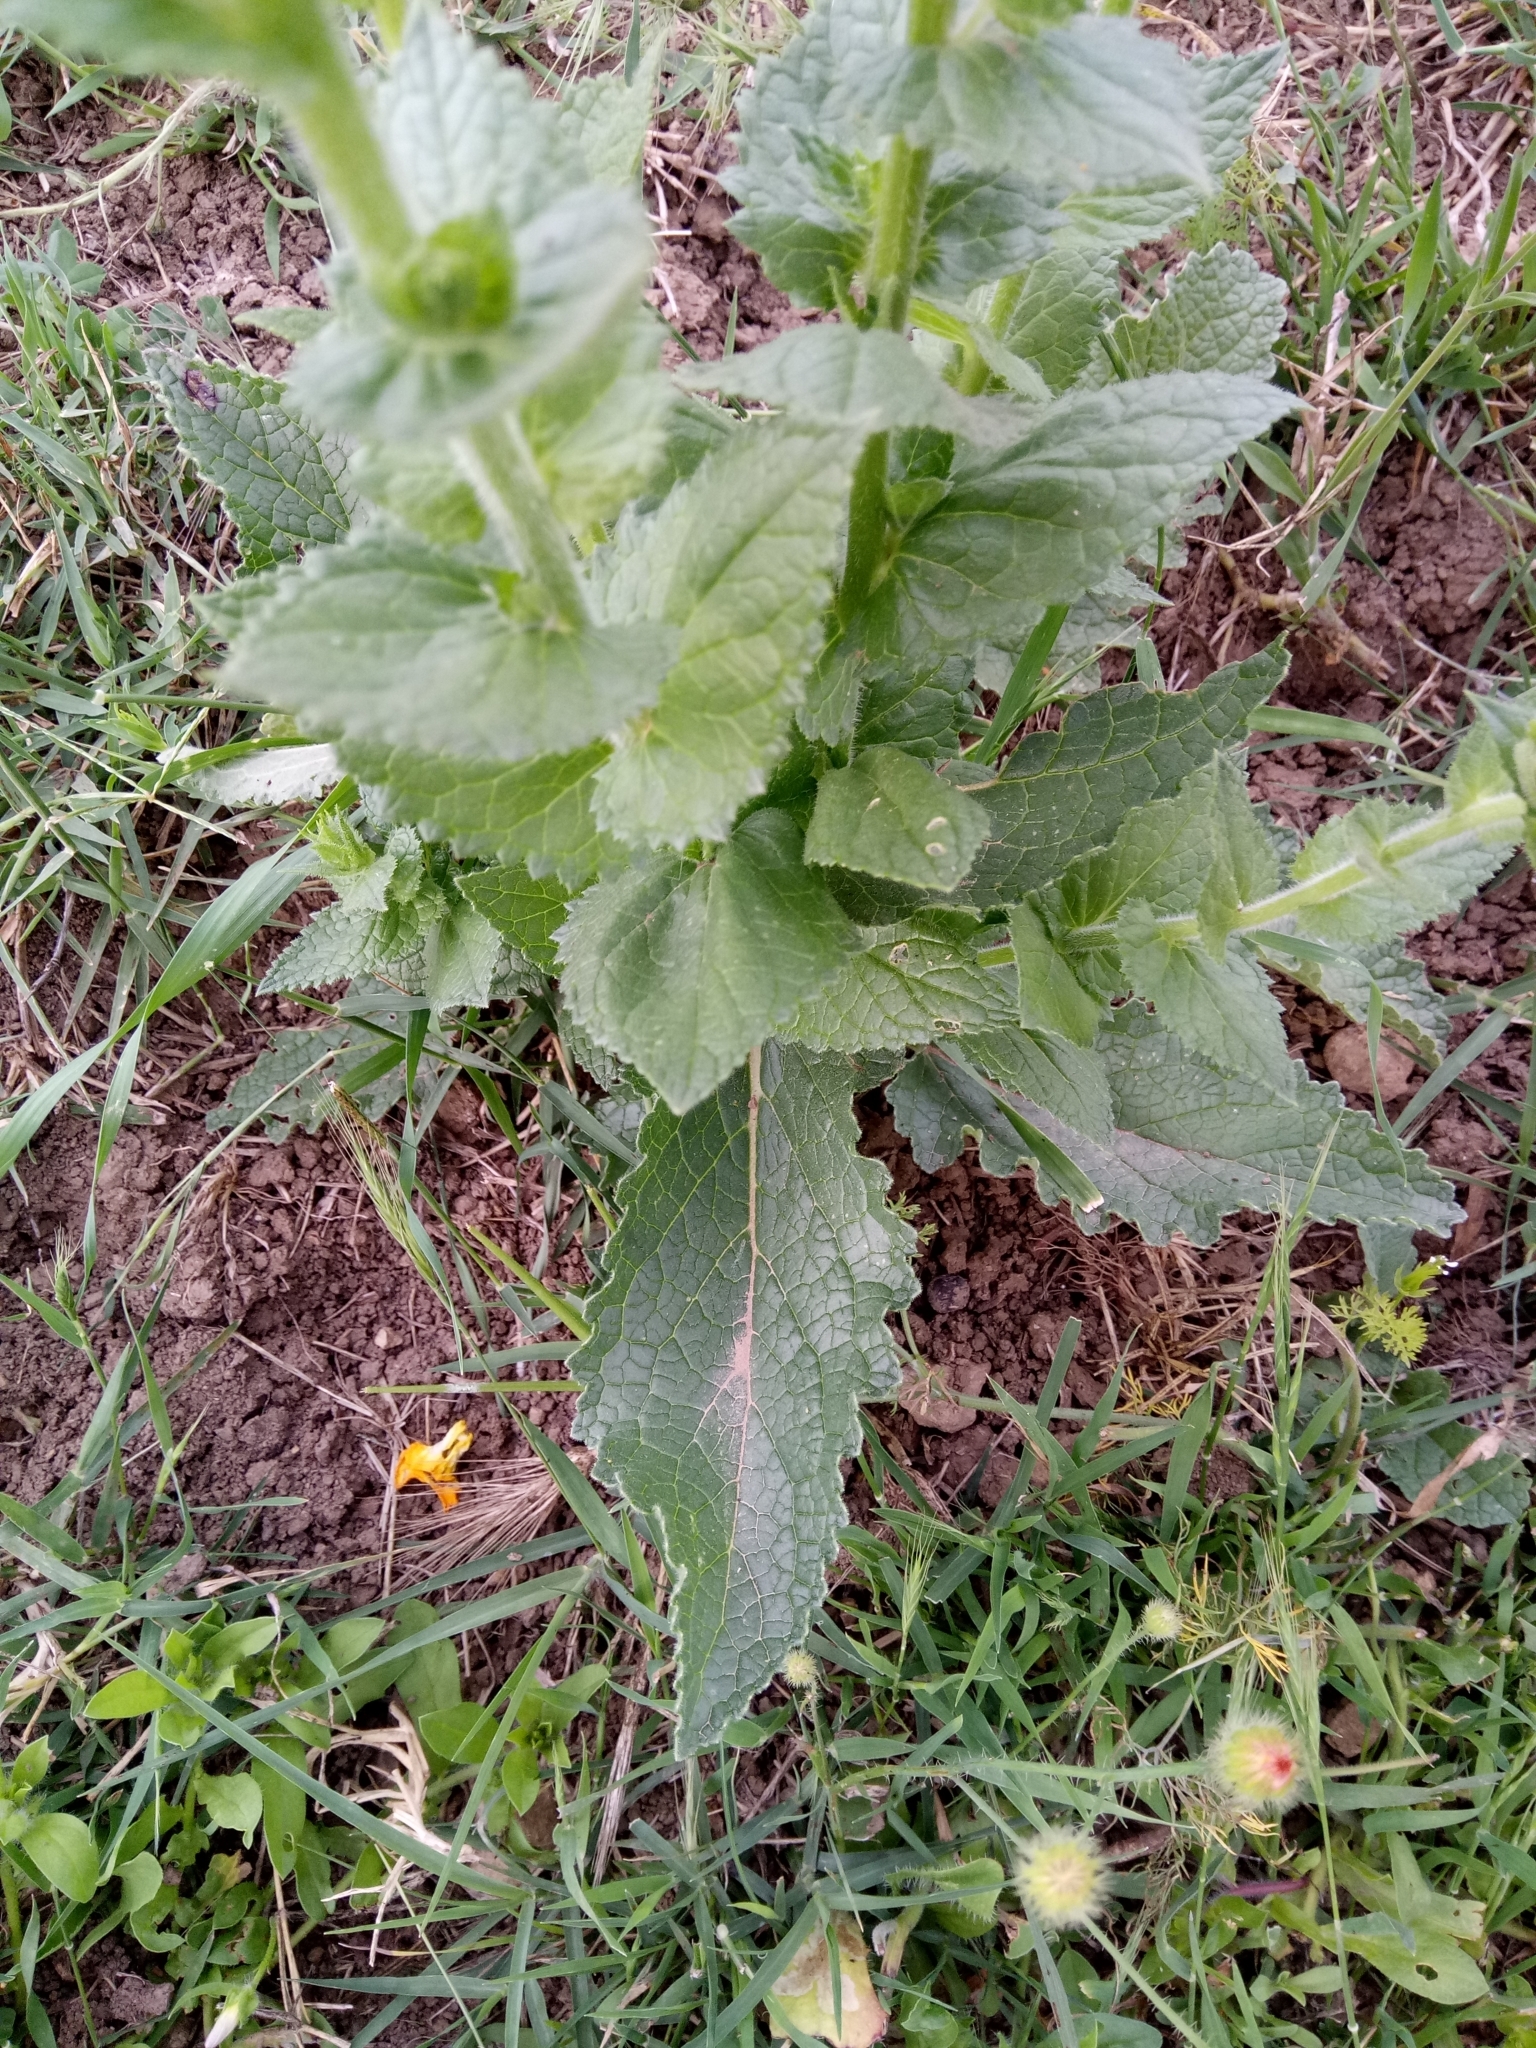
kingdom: Plantae
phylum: Tracheophyta
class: Magnoliopsida
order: Lamiales
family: Scrophulariaceae
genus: Verbascum
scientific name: Verbascum creticum
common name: Cretan mullein
